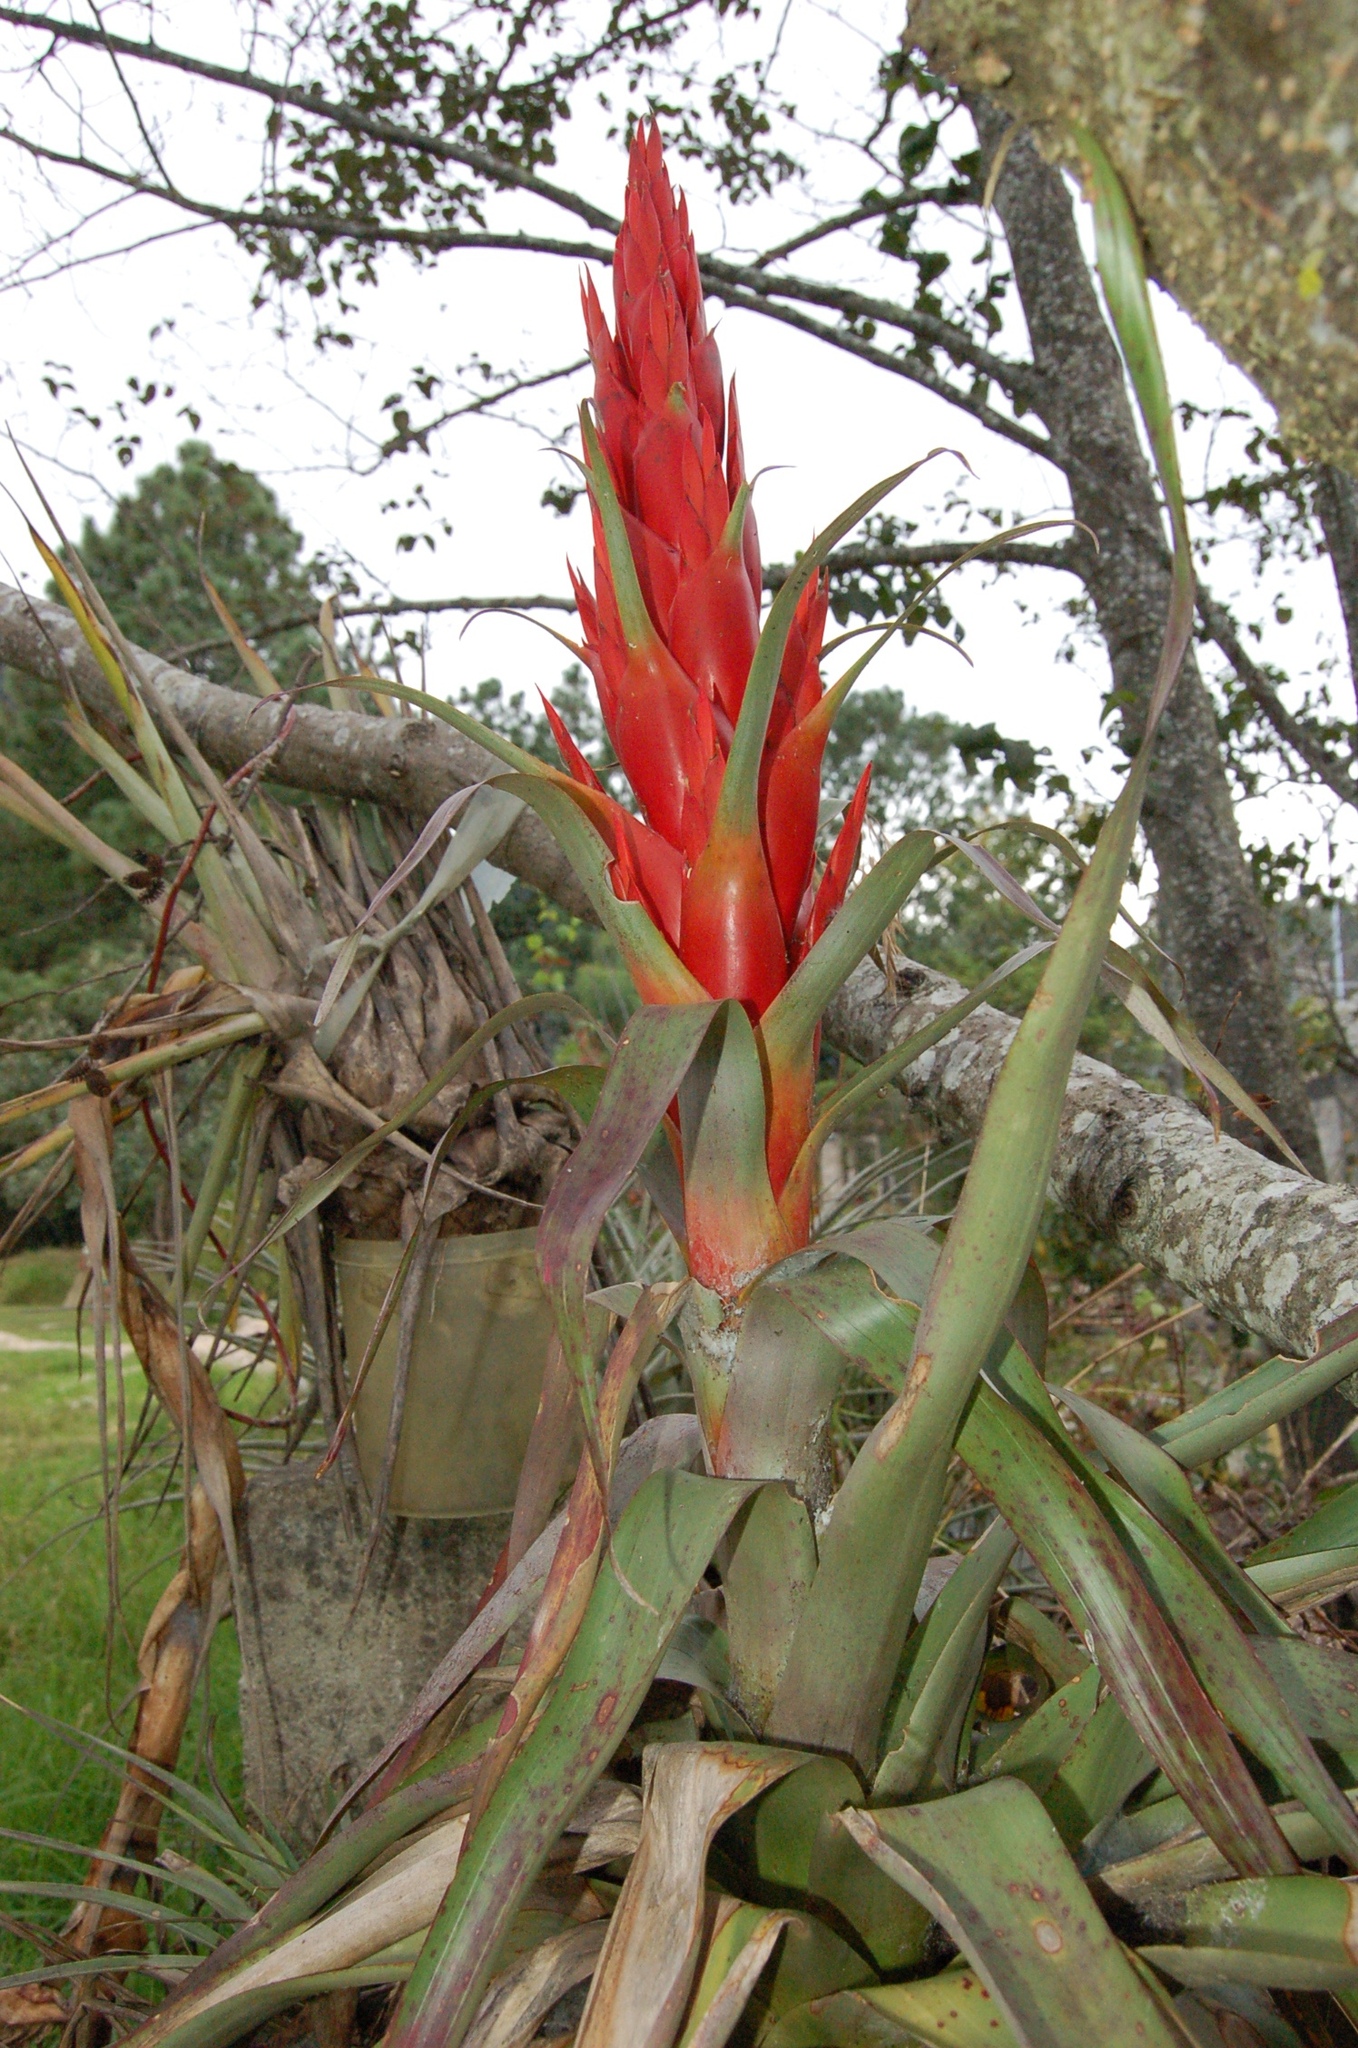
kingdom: Plantae
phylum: Tracheophyta
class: Liliopsida
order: Poales
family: Bromeliaceae
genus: Tillandsia
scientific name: Tillandsia ponderosa
